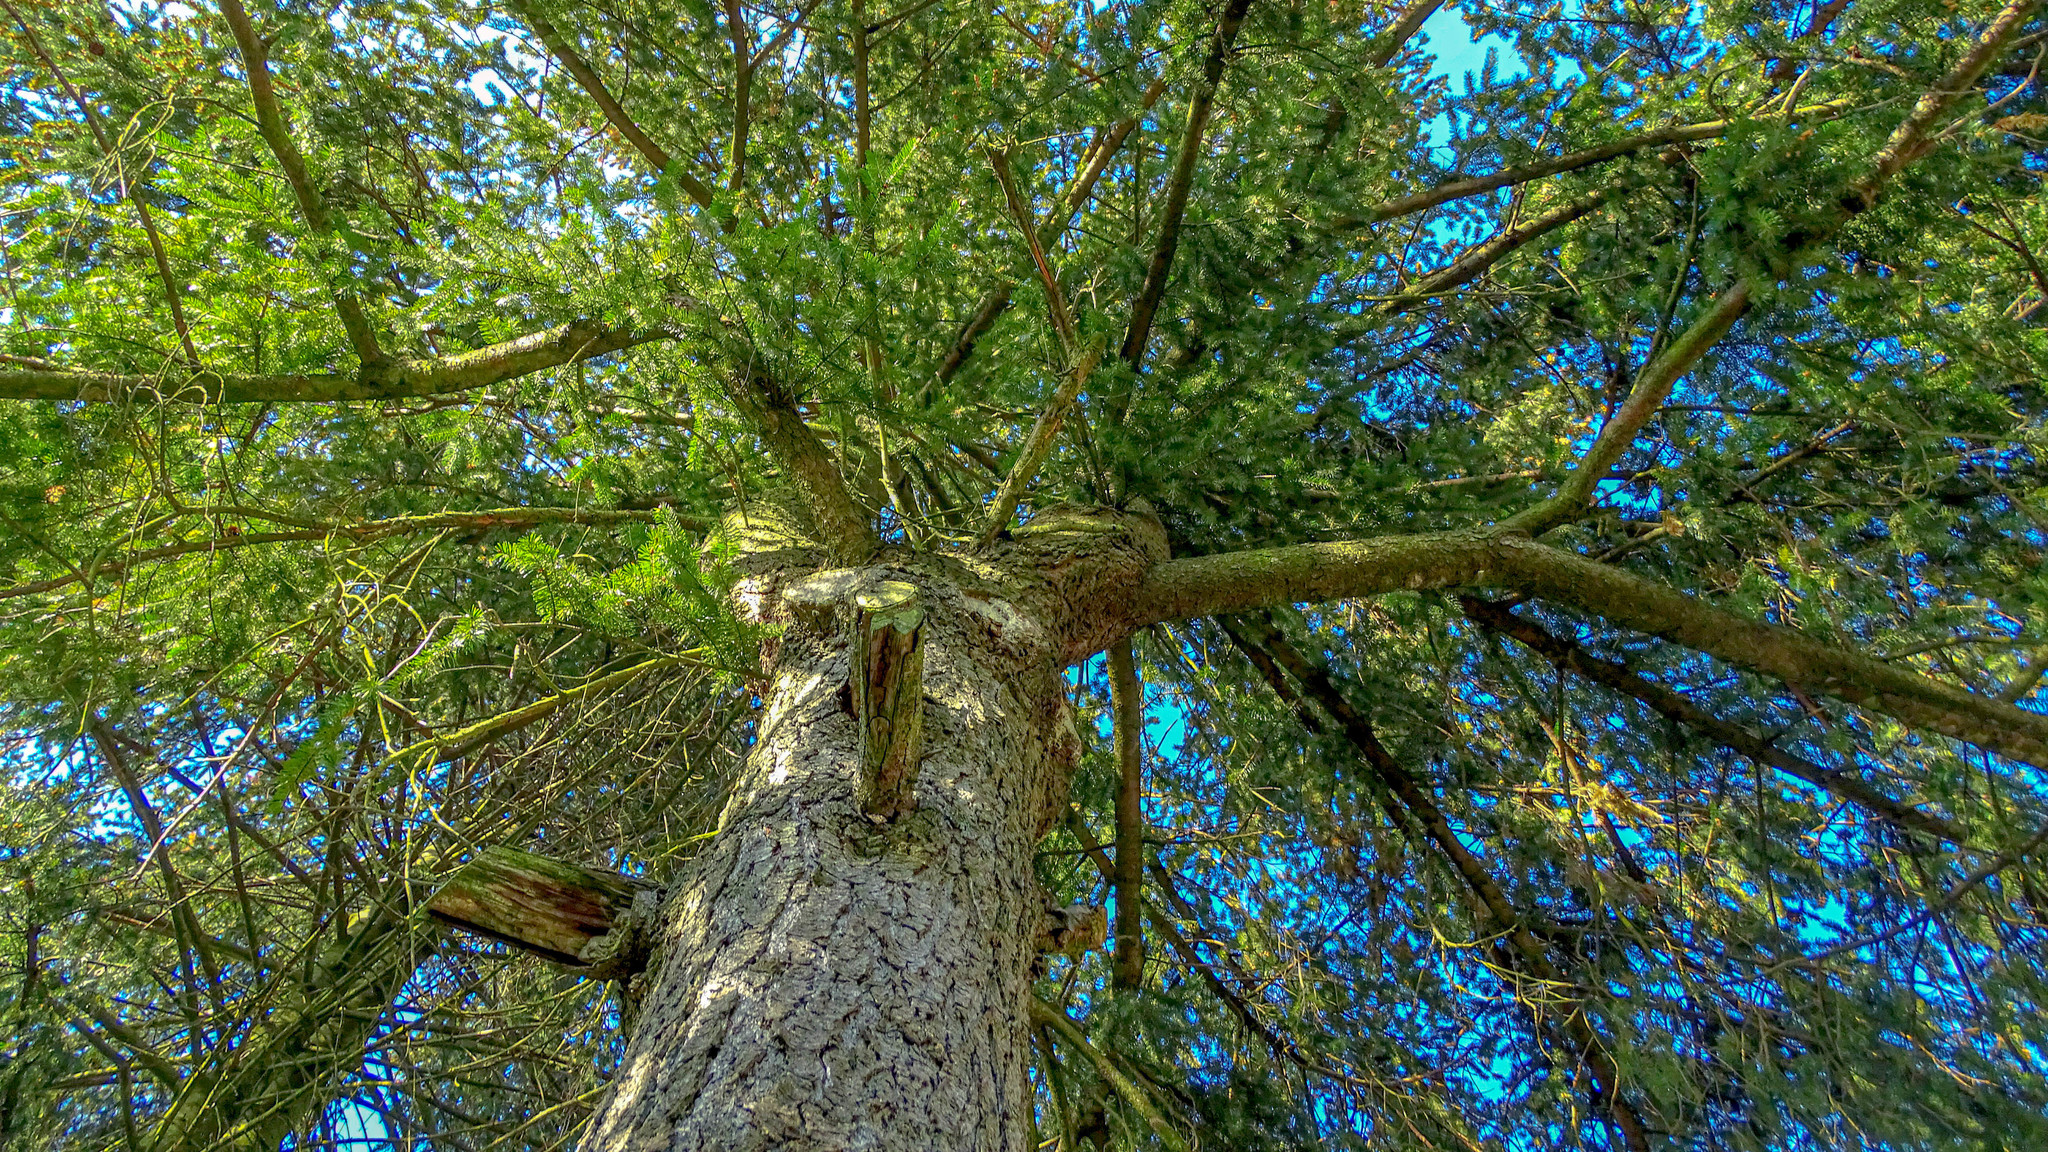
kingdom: Plantae
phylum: Tracheophyta
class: Pinopsida
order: Pinales
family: Pinaceae
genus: Pseudotsuga
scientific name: Pseudotsuga menziesii
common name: Douglas fir
